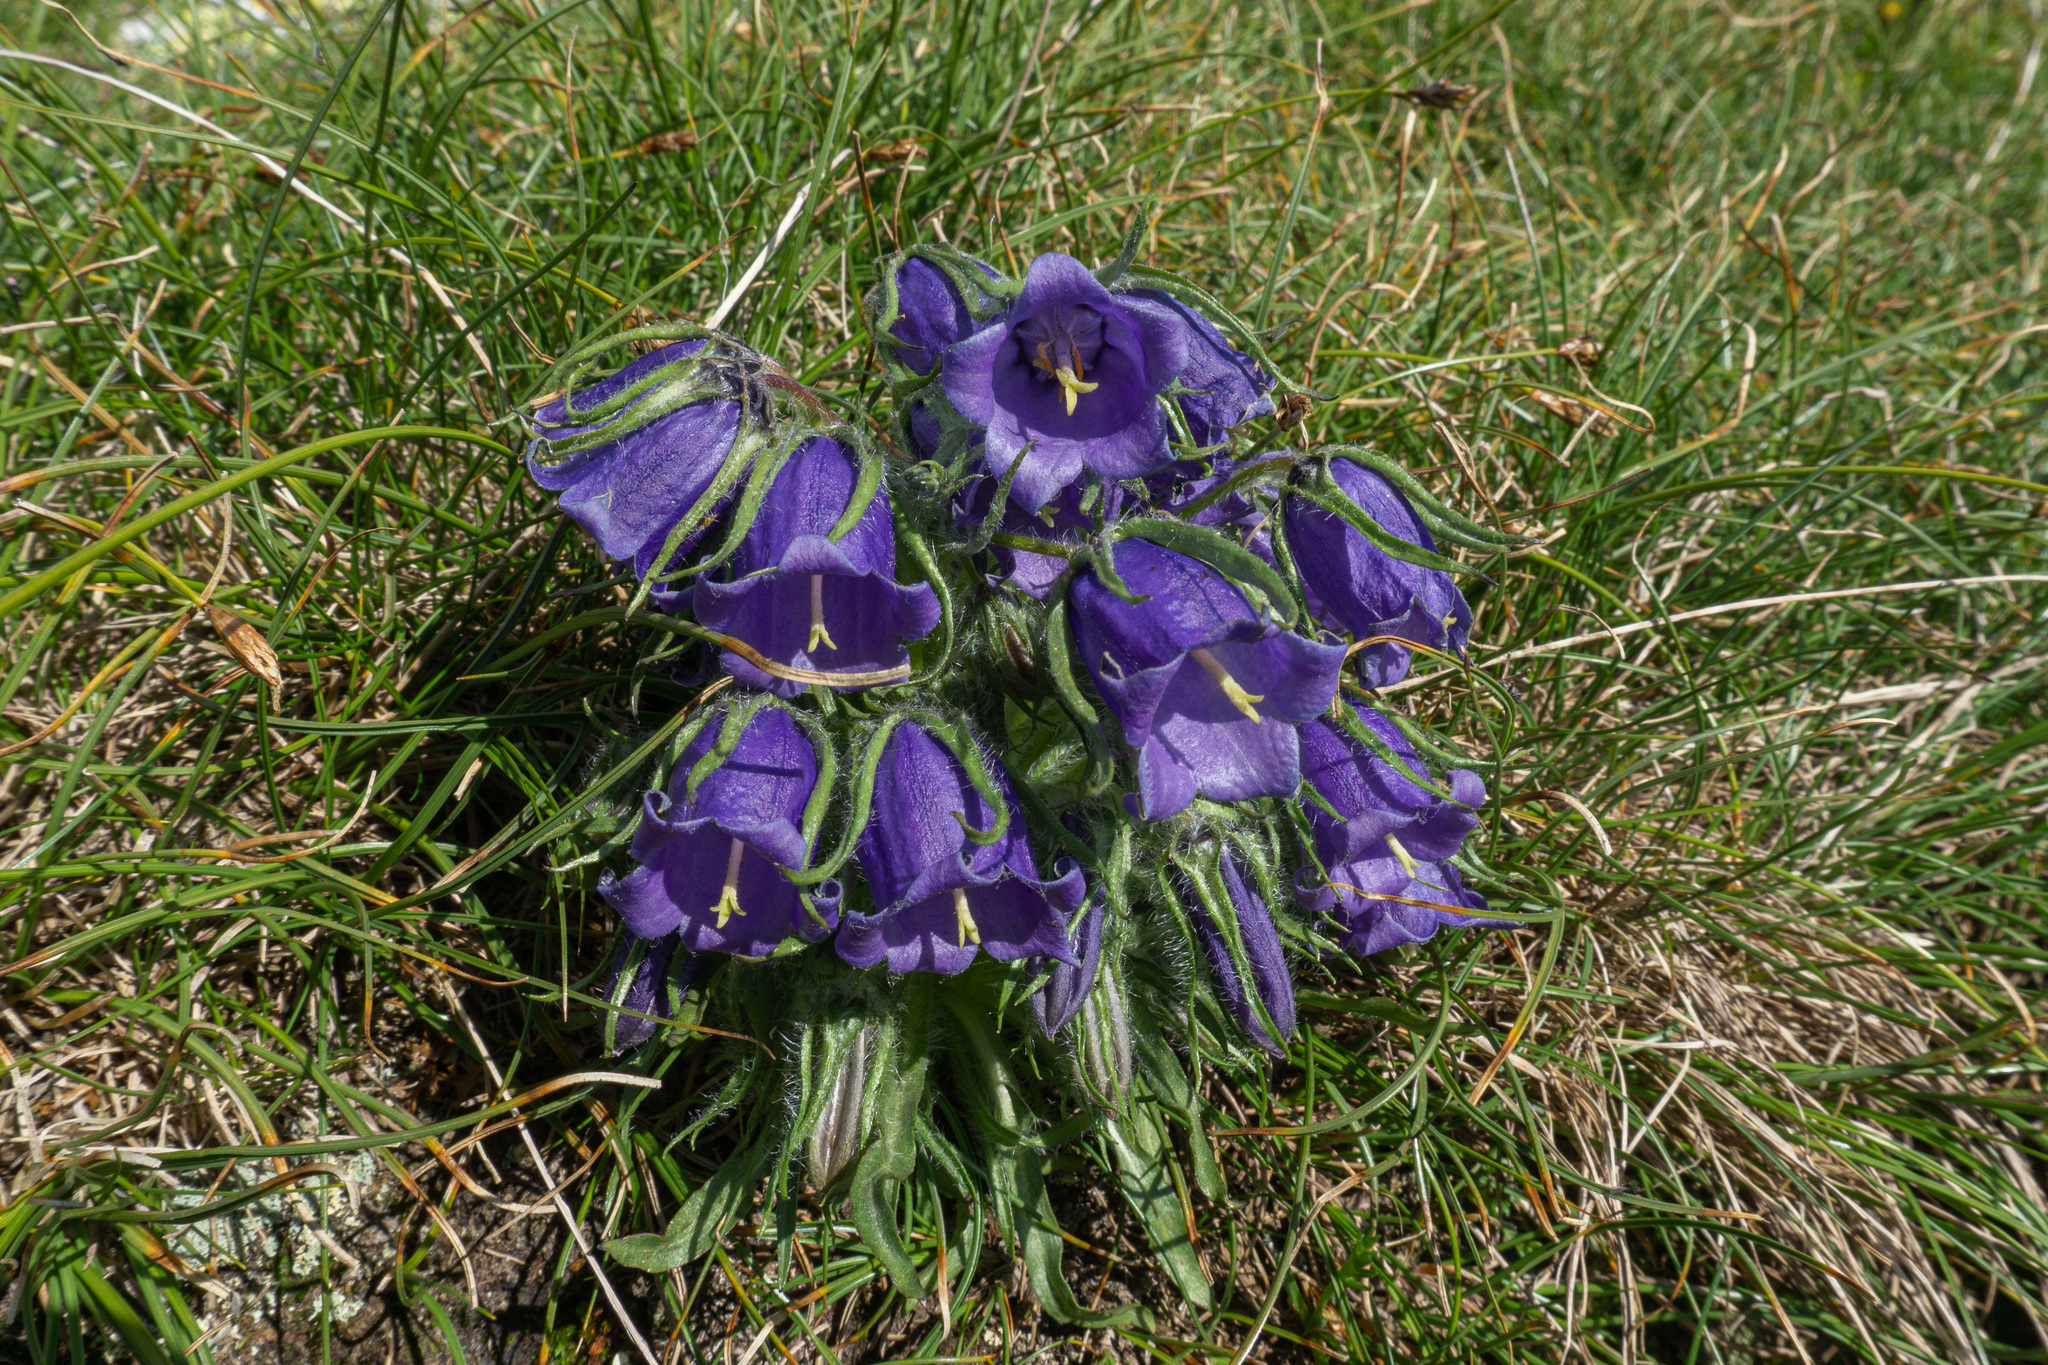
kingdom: Plantae
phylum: Tracheophyta
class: Magnoliopsida
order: Asterales
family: Campanulaceae
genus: Campanula
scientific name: Campanula alpina
